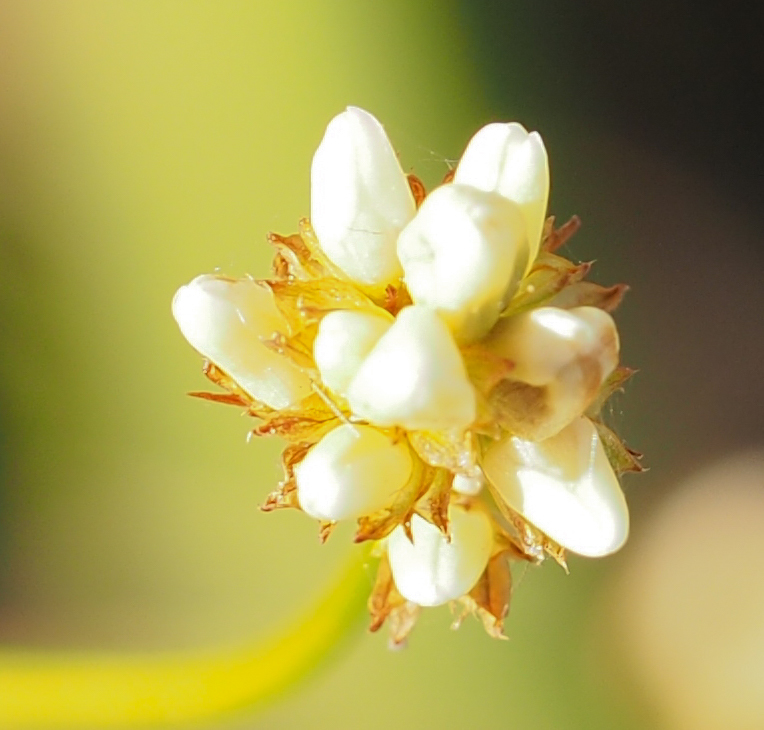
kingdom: Plantae
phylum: Tracheophyta
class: Magnoliopsida
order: Caryophyllales
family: Polygonaceae
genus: Persicaria
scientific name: Persicaria sagittata
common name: American tearthumb
